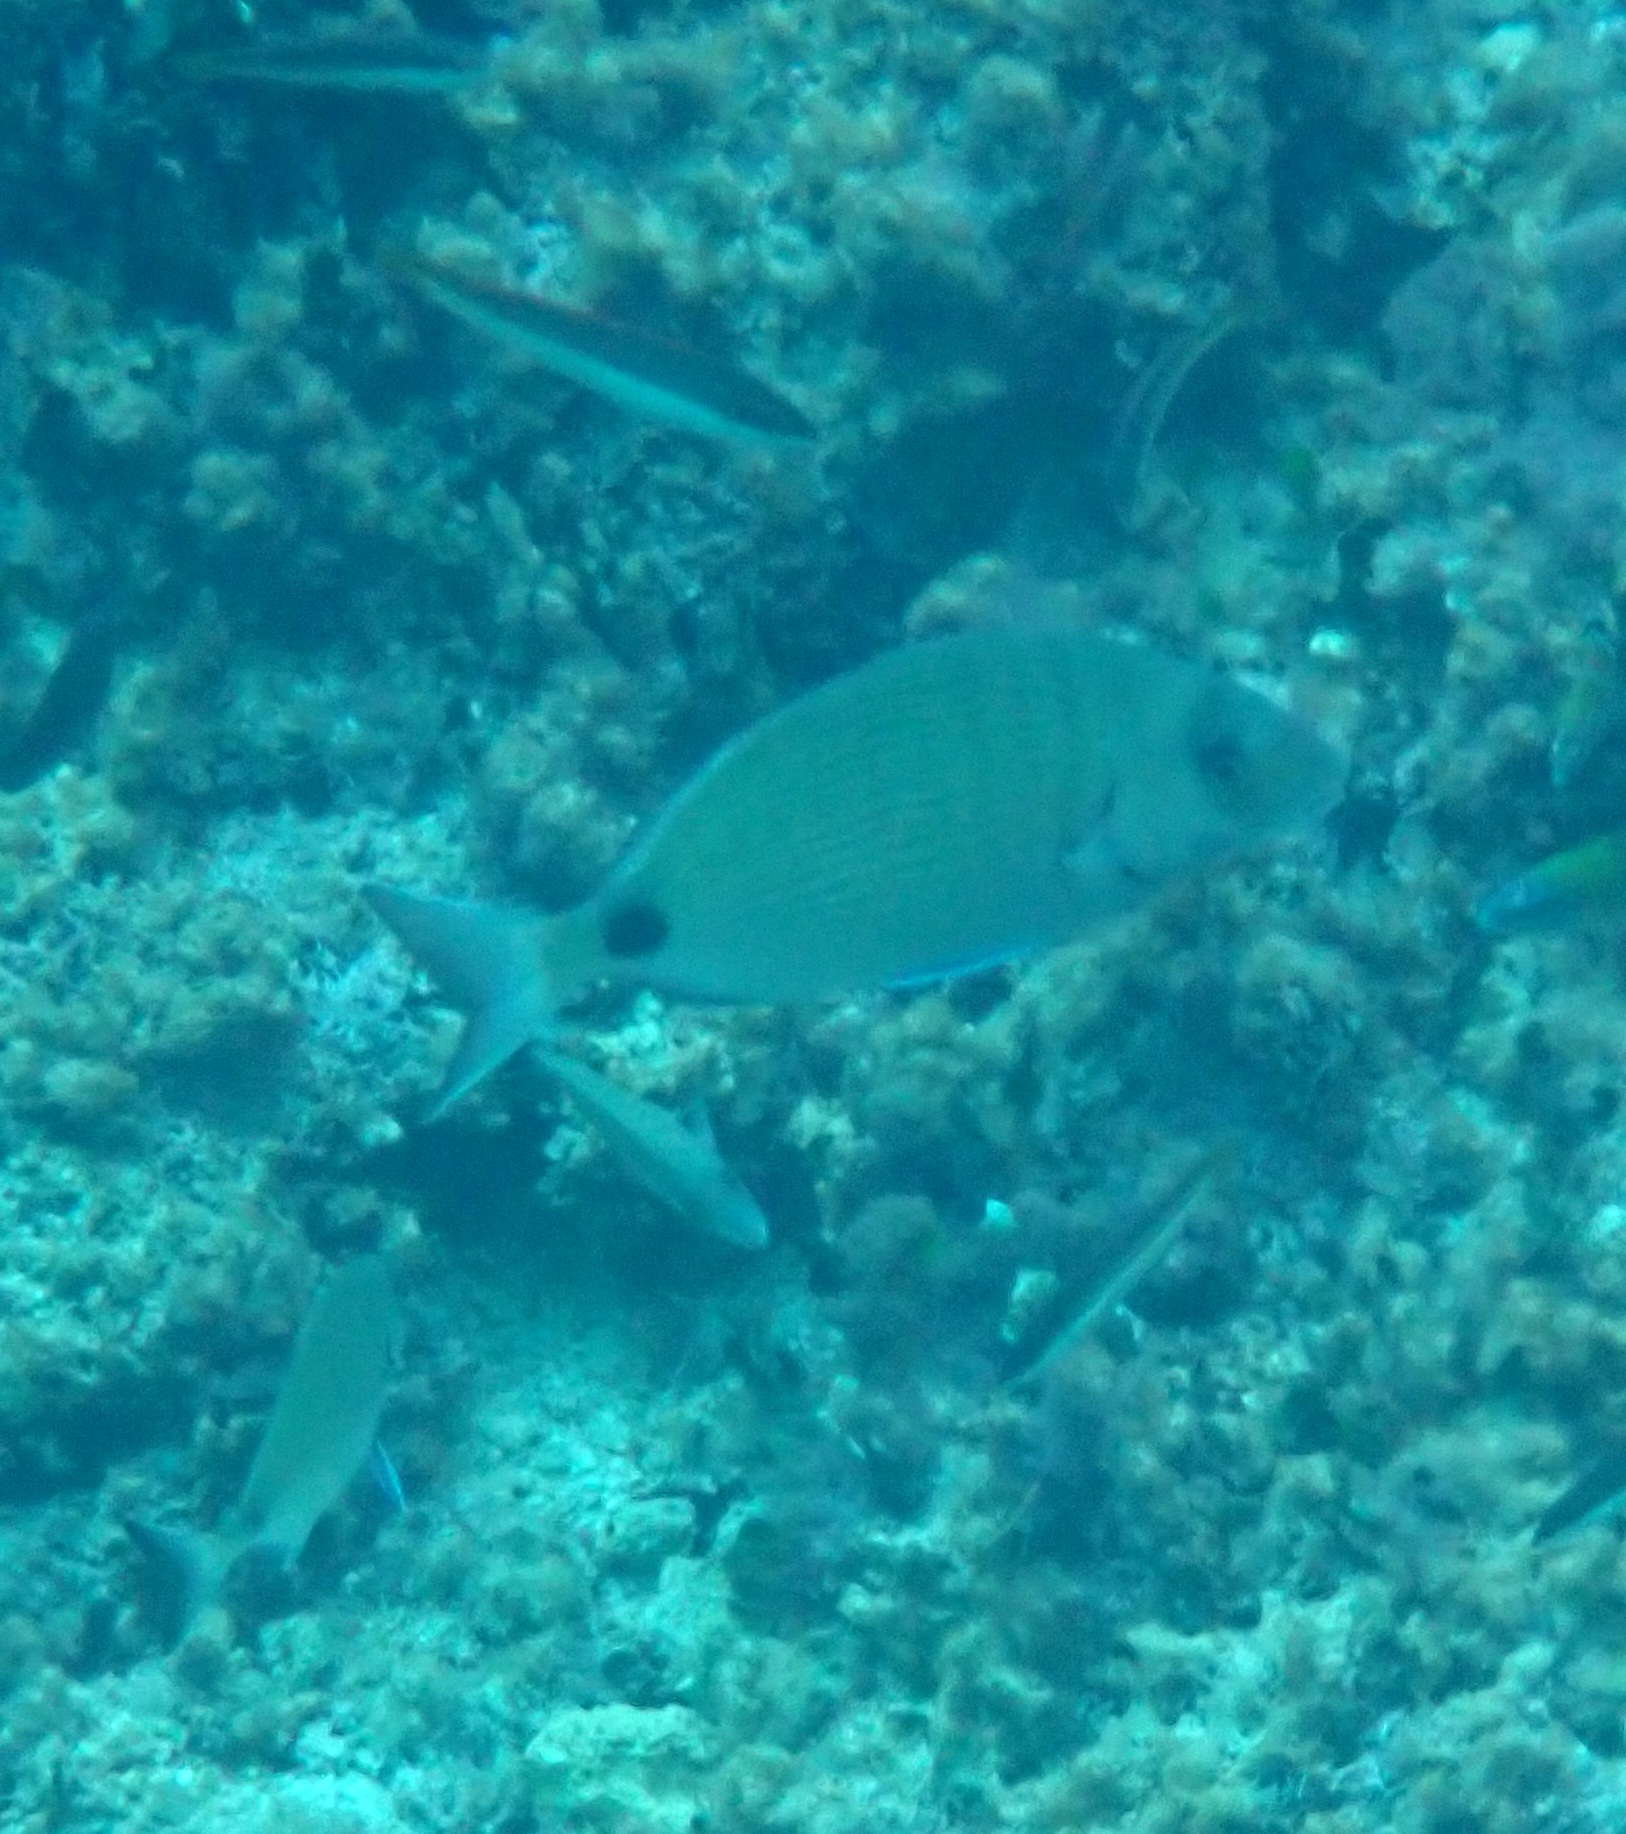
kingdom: Animalia
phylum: Chordata
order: Perciformes
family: Sparidae
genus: Diplodus
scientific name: Diplodus sargus
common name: White seabream
